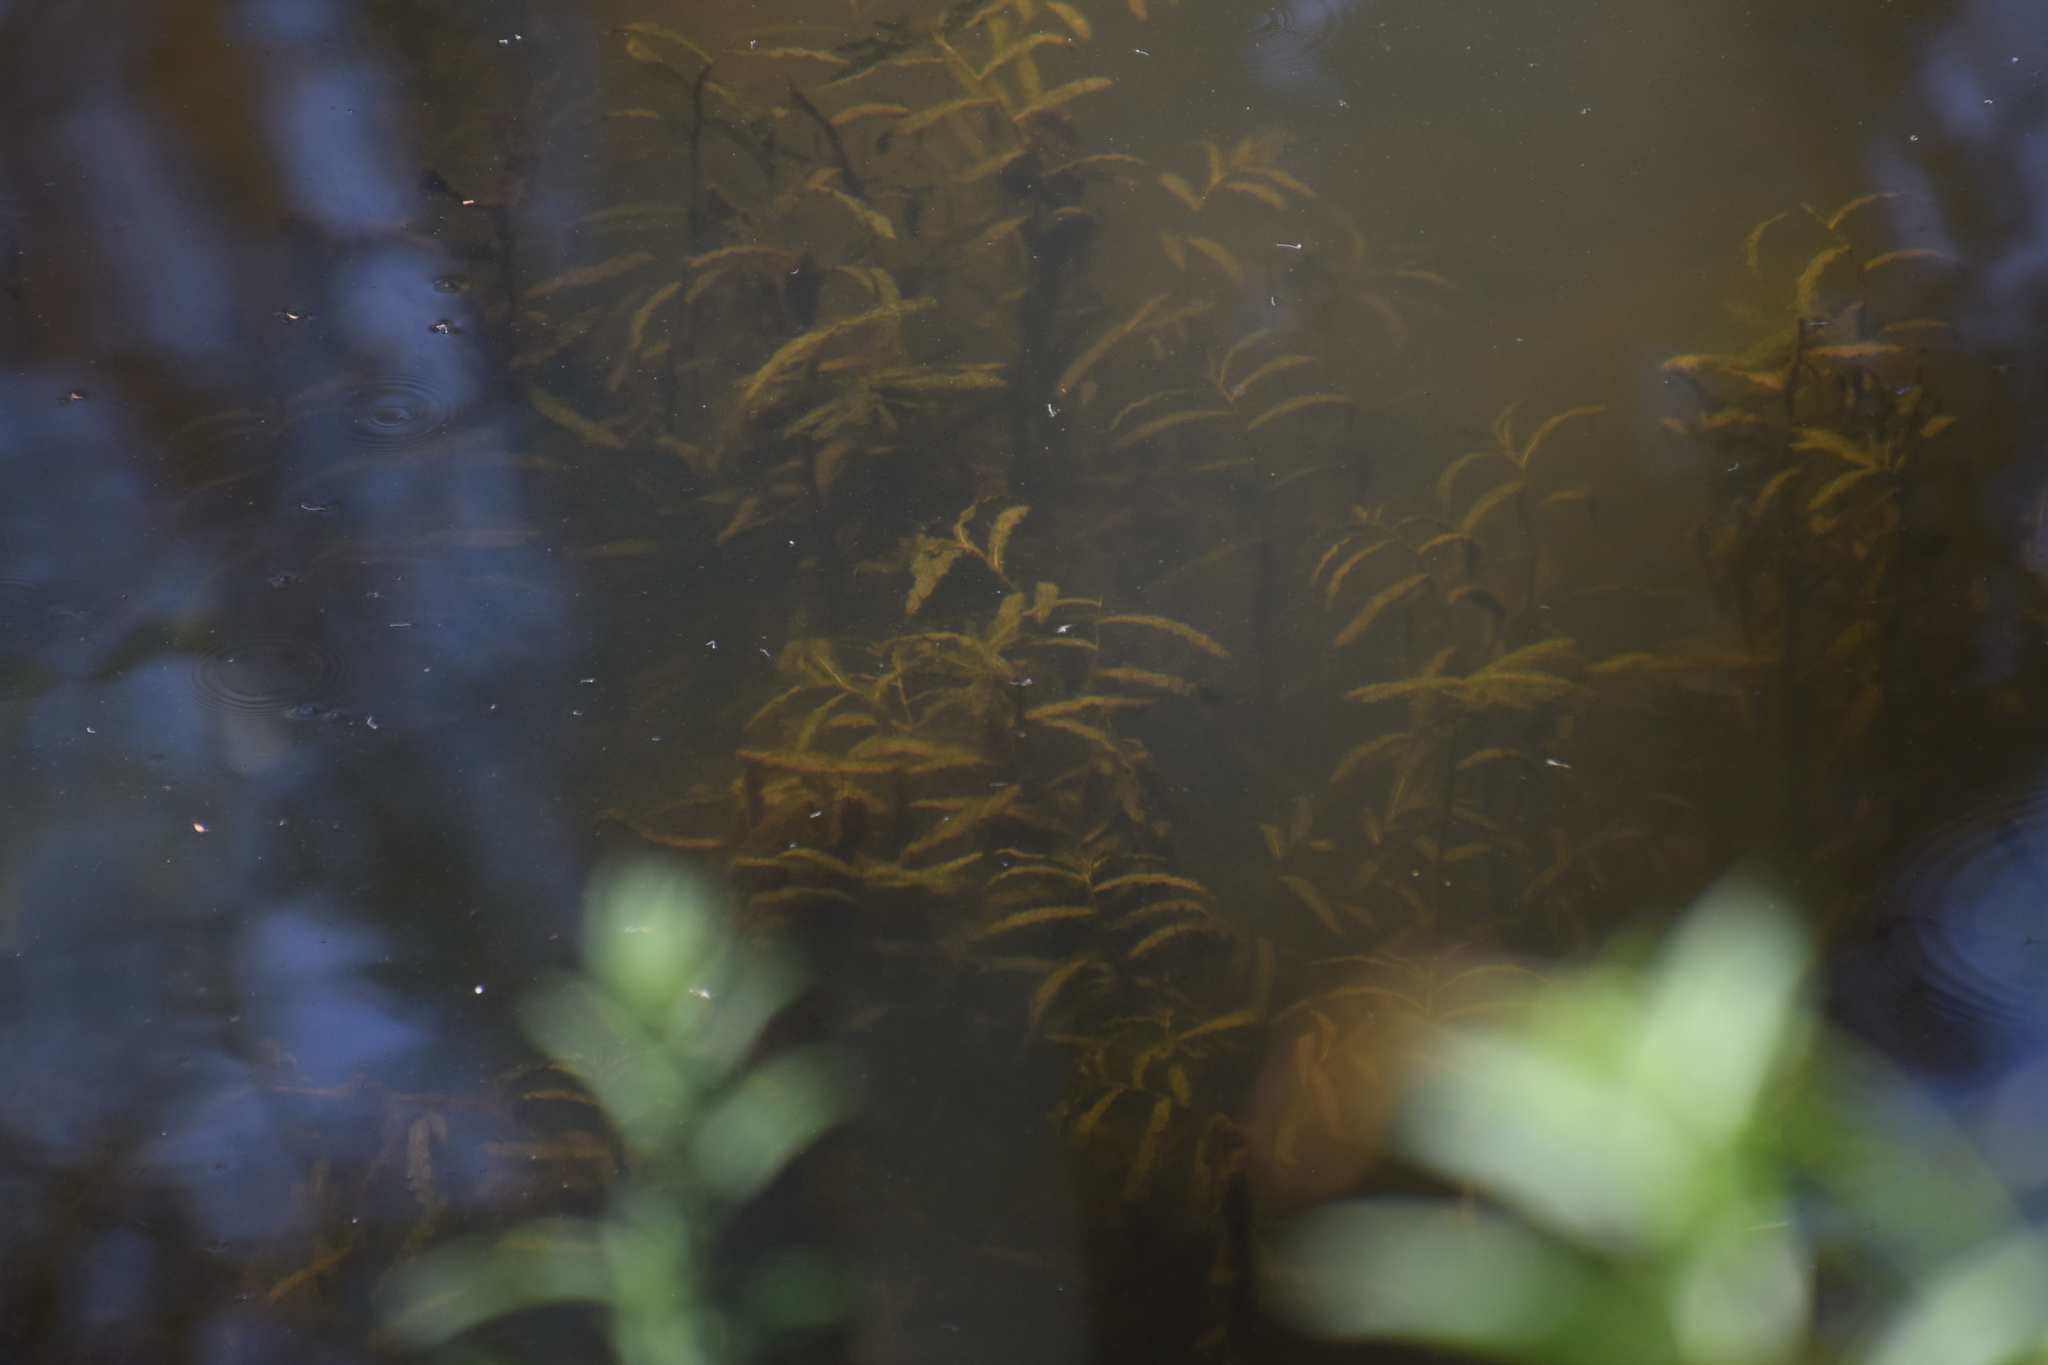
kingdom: Plantae
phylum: Tracheophyta
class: Liliopsida
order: Alismatales
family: Potamogetonaceae
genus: Potamogeton
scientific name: Potamogeton crispus
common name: Curled pondweed
